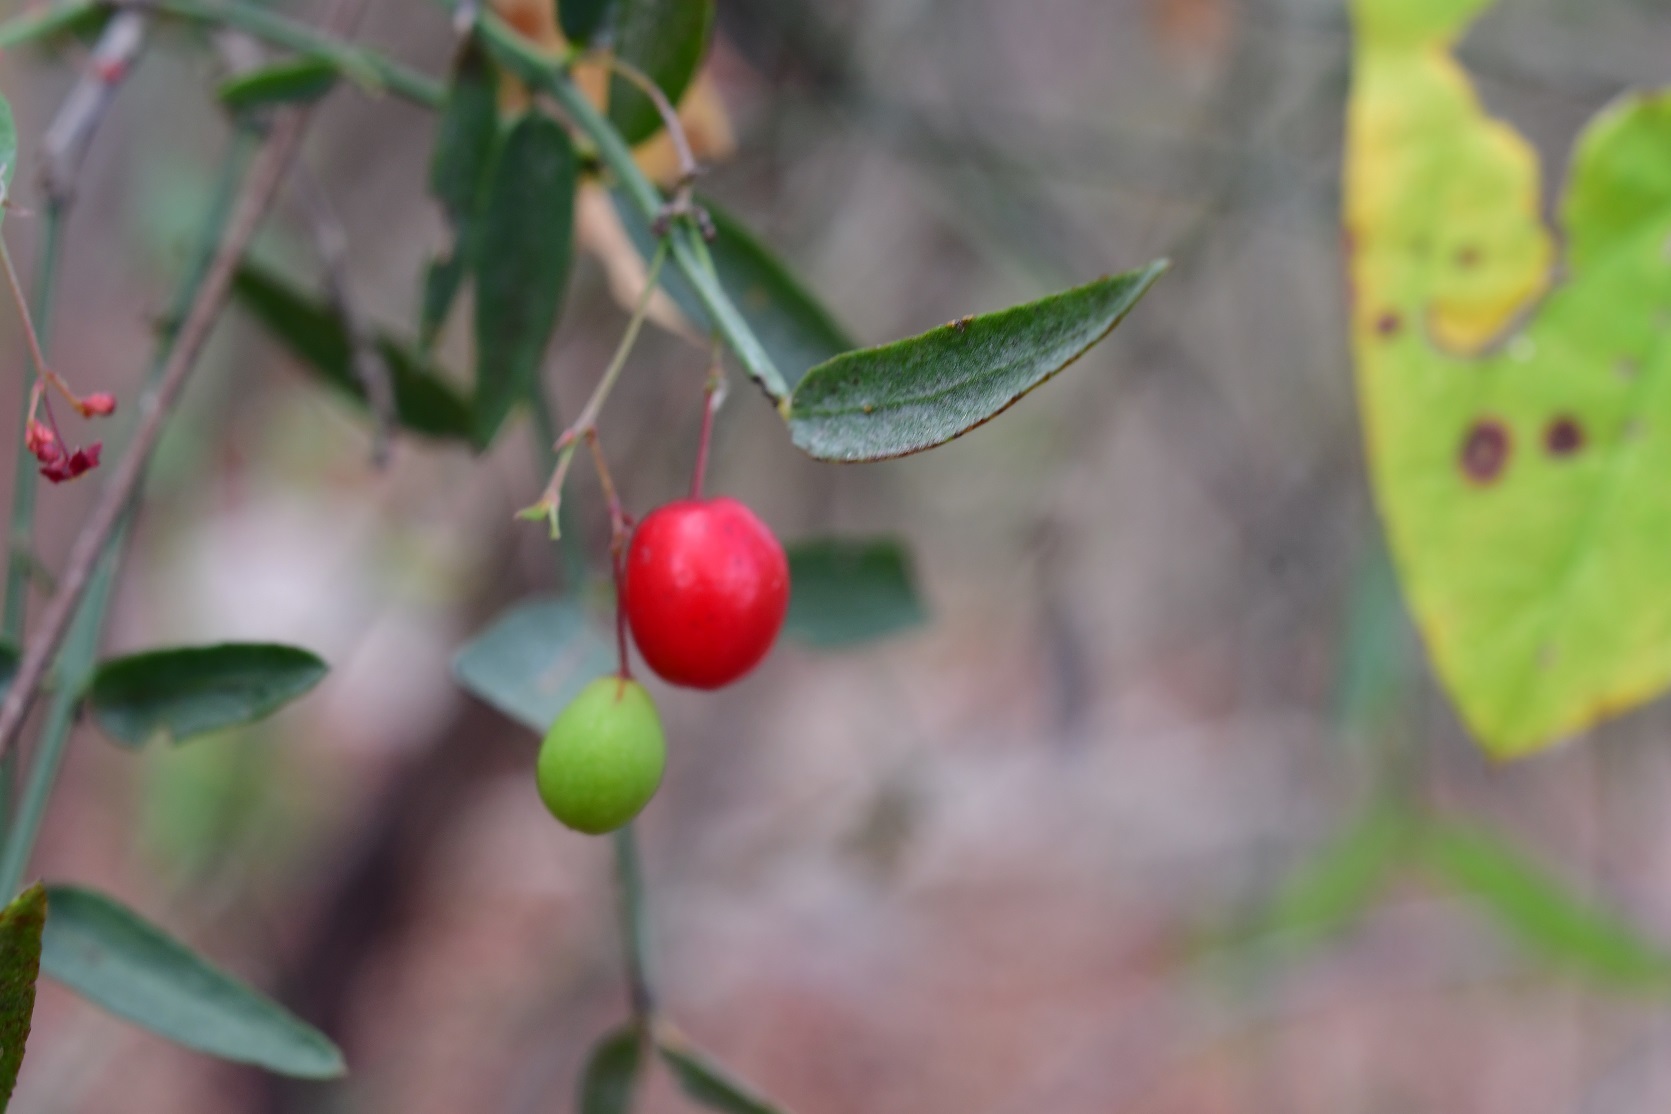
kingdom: Plantae
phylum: Tracheophyta
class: Magnoliopsida
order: Celastrales
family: Celastraceae
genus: Crossopetalum
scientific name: Crossopetalum uragoga
